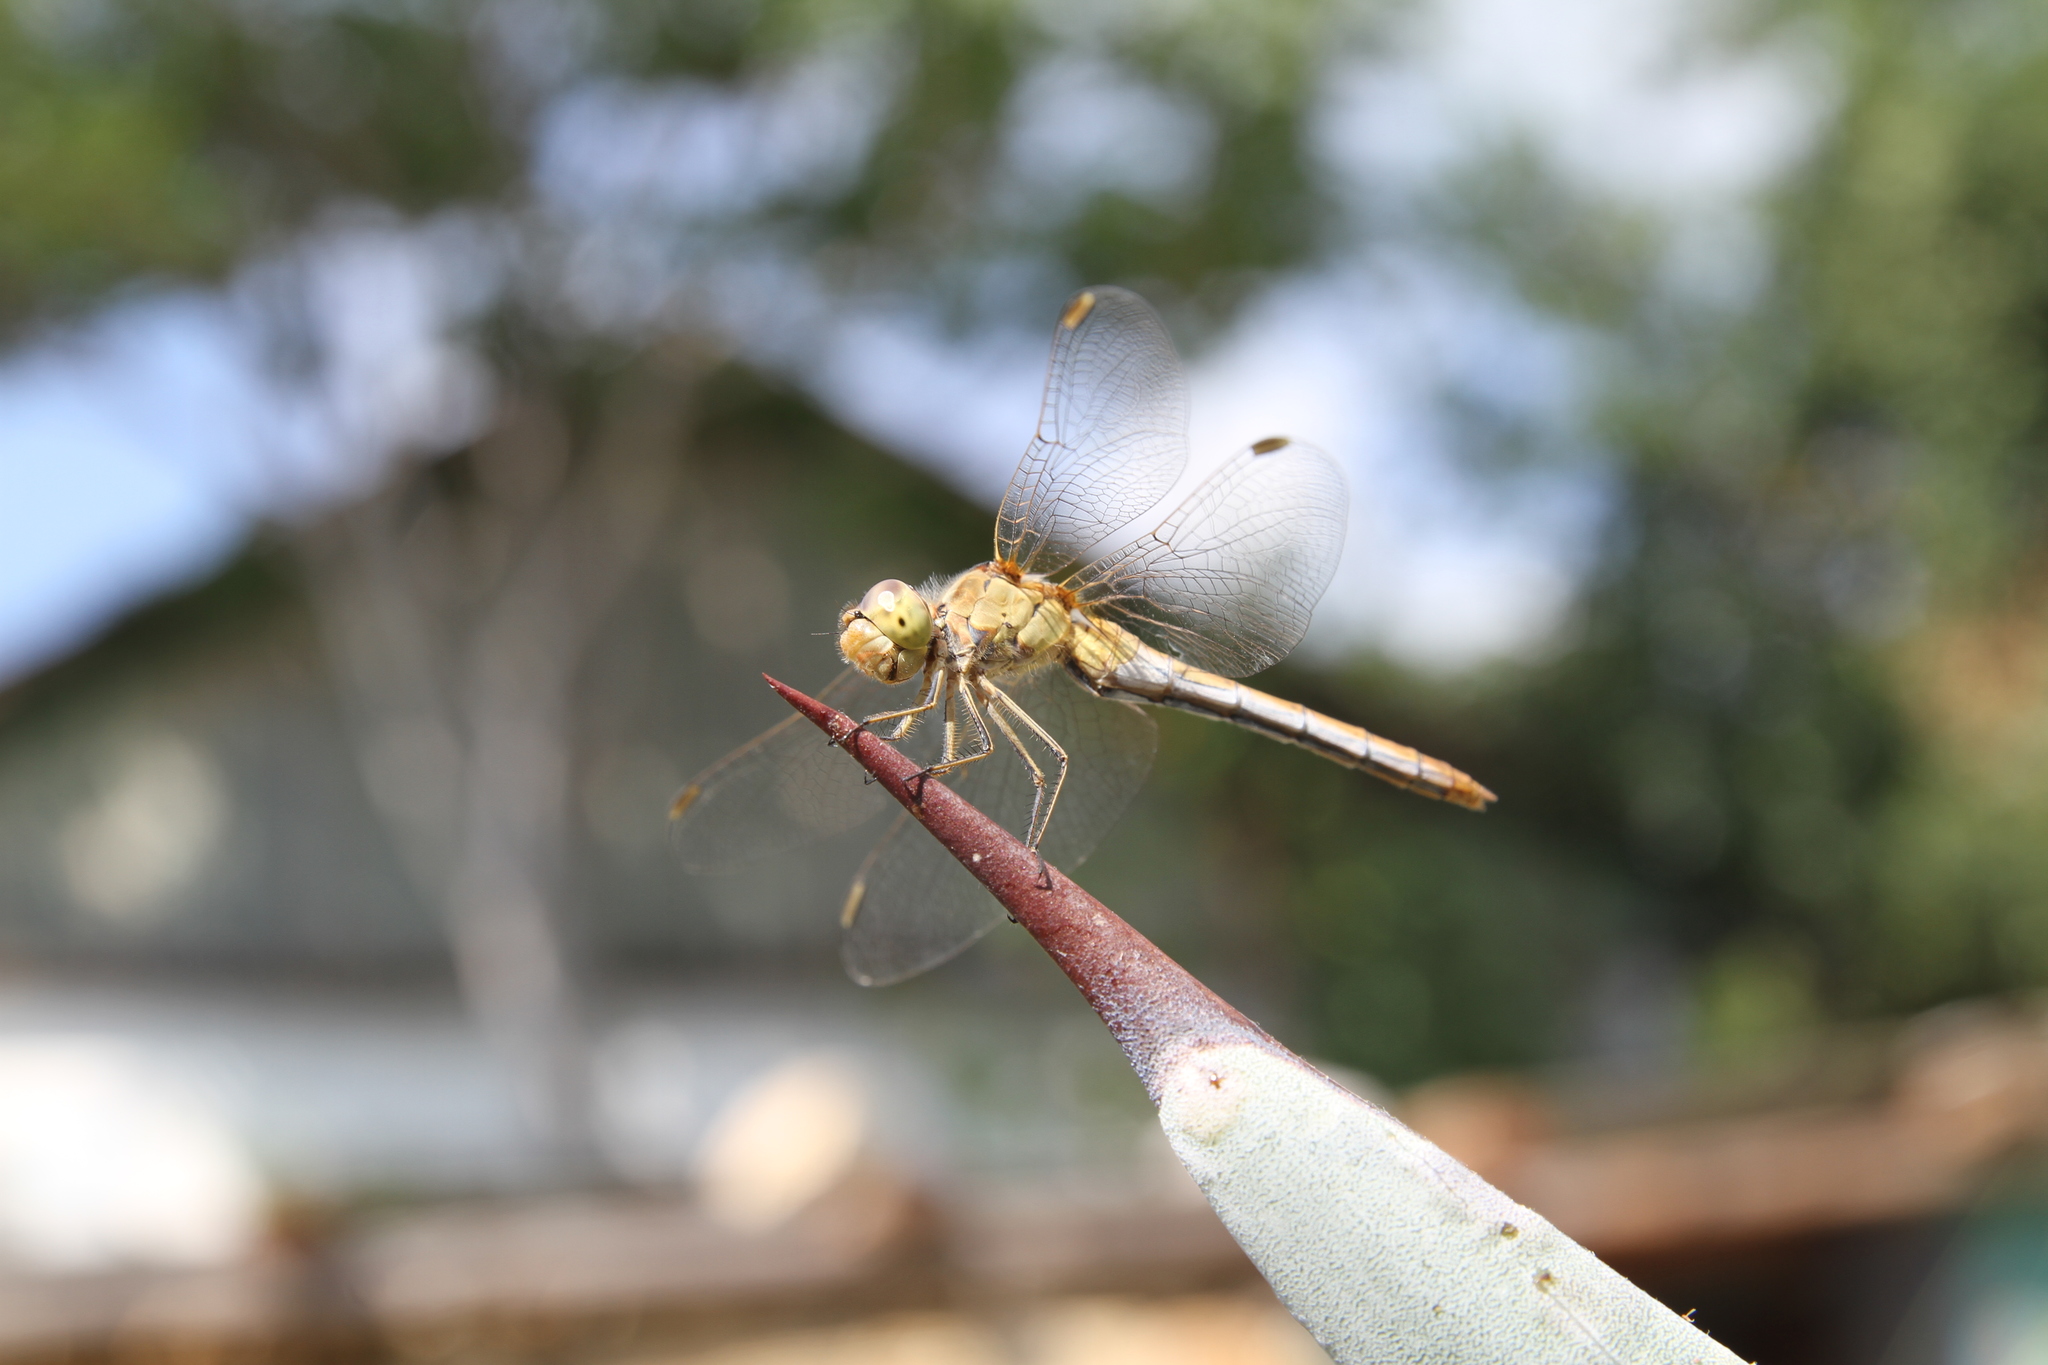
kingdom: Animalia
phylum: Arthropoda
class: Insecta
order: Odonata
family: Libellulidae
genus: Sympetrum
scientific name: Sympetrum meridionale
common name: Southern darter
